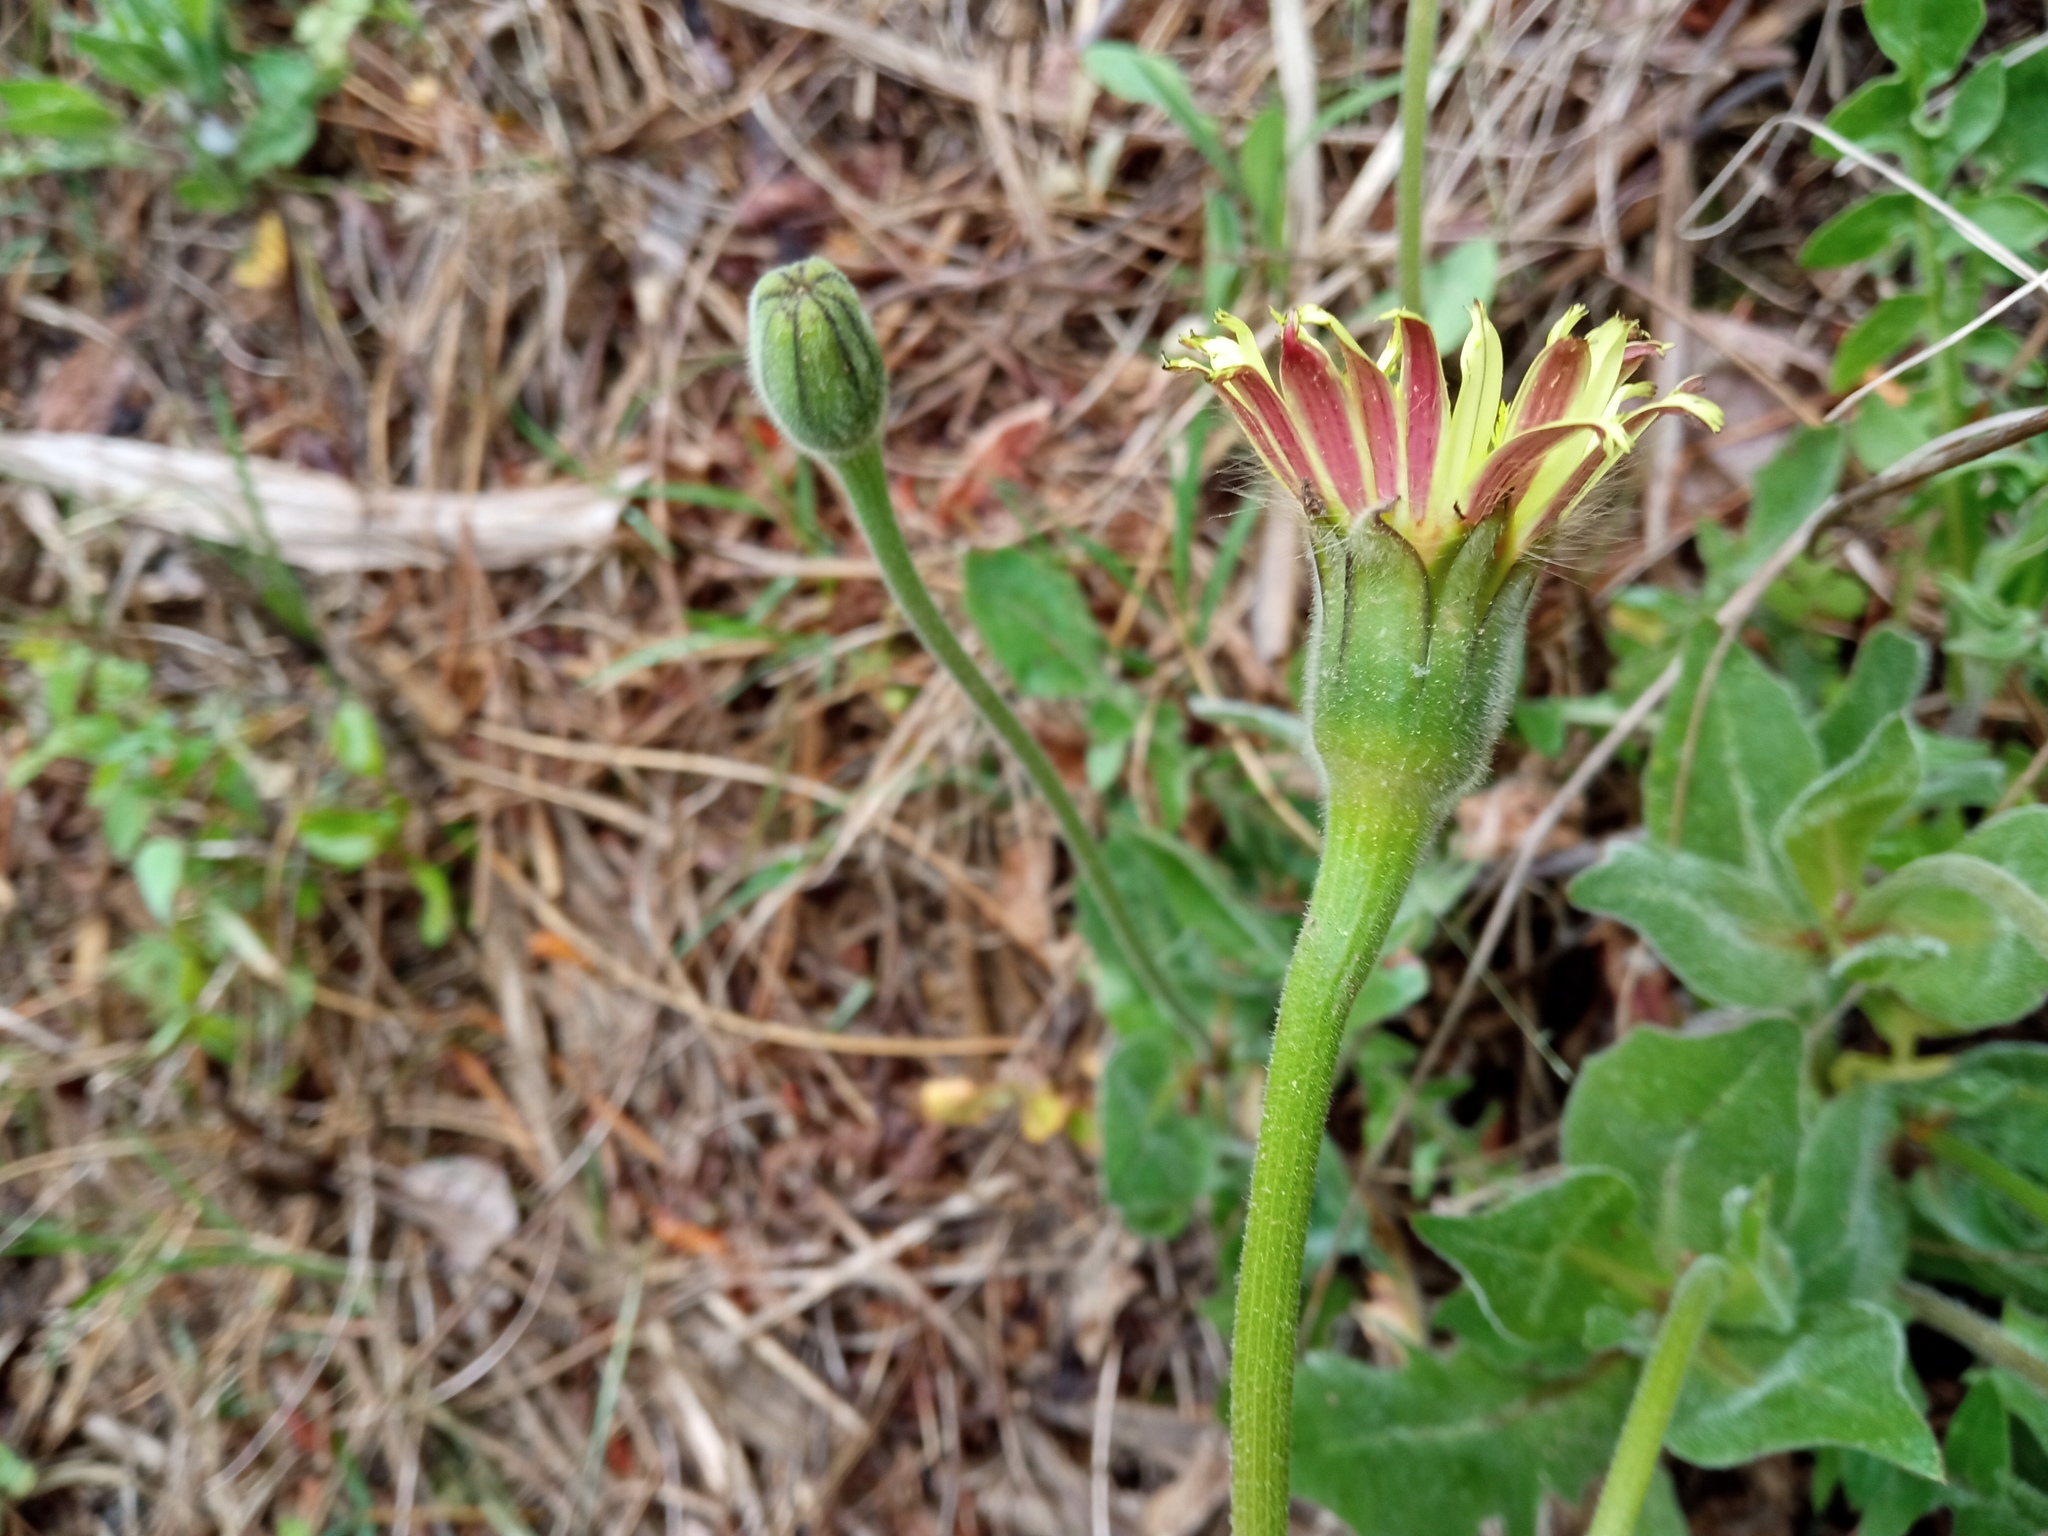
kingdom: Plantae
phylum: Tracheophyta
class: Magnoliopsida
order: Asterales
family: Asteraceae
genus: Urospermum
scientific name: Urospermum dalechampii
